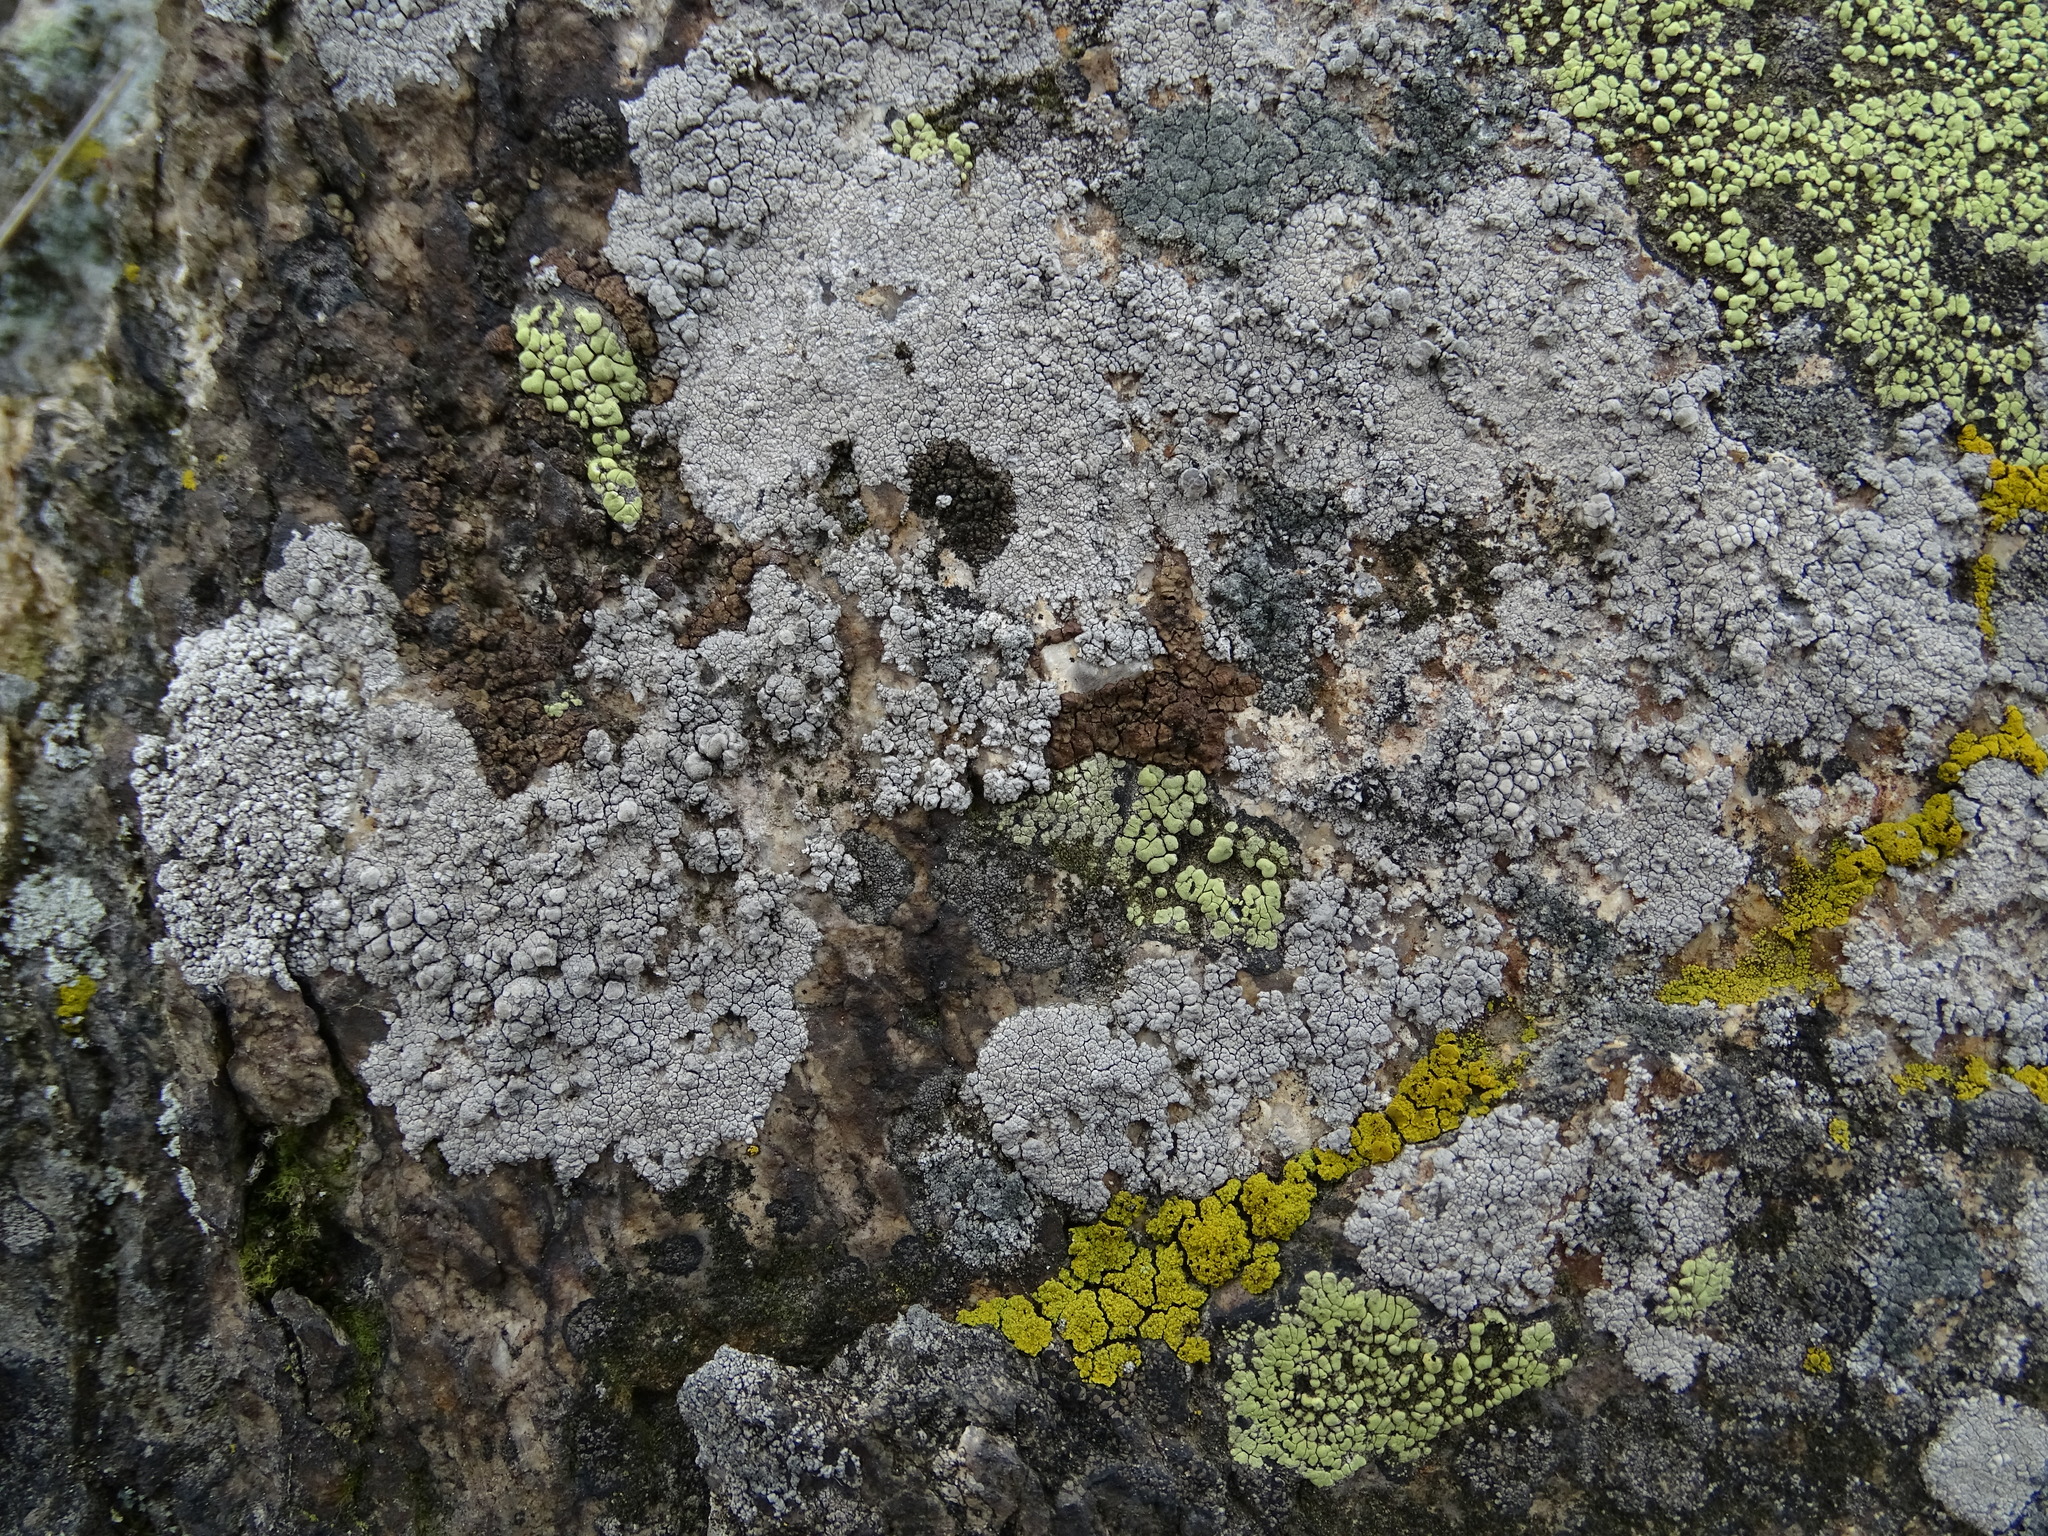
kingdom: Fungi
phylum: Ascomycota
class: Lecanoromycetes
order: Lecanorales
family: Lecanoraceae
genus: Glaucomaria
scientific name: Glaucomaria rupicola
